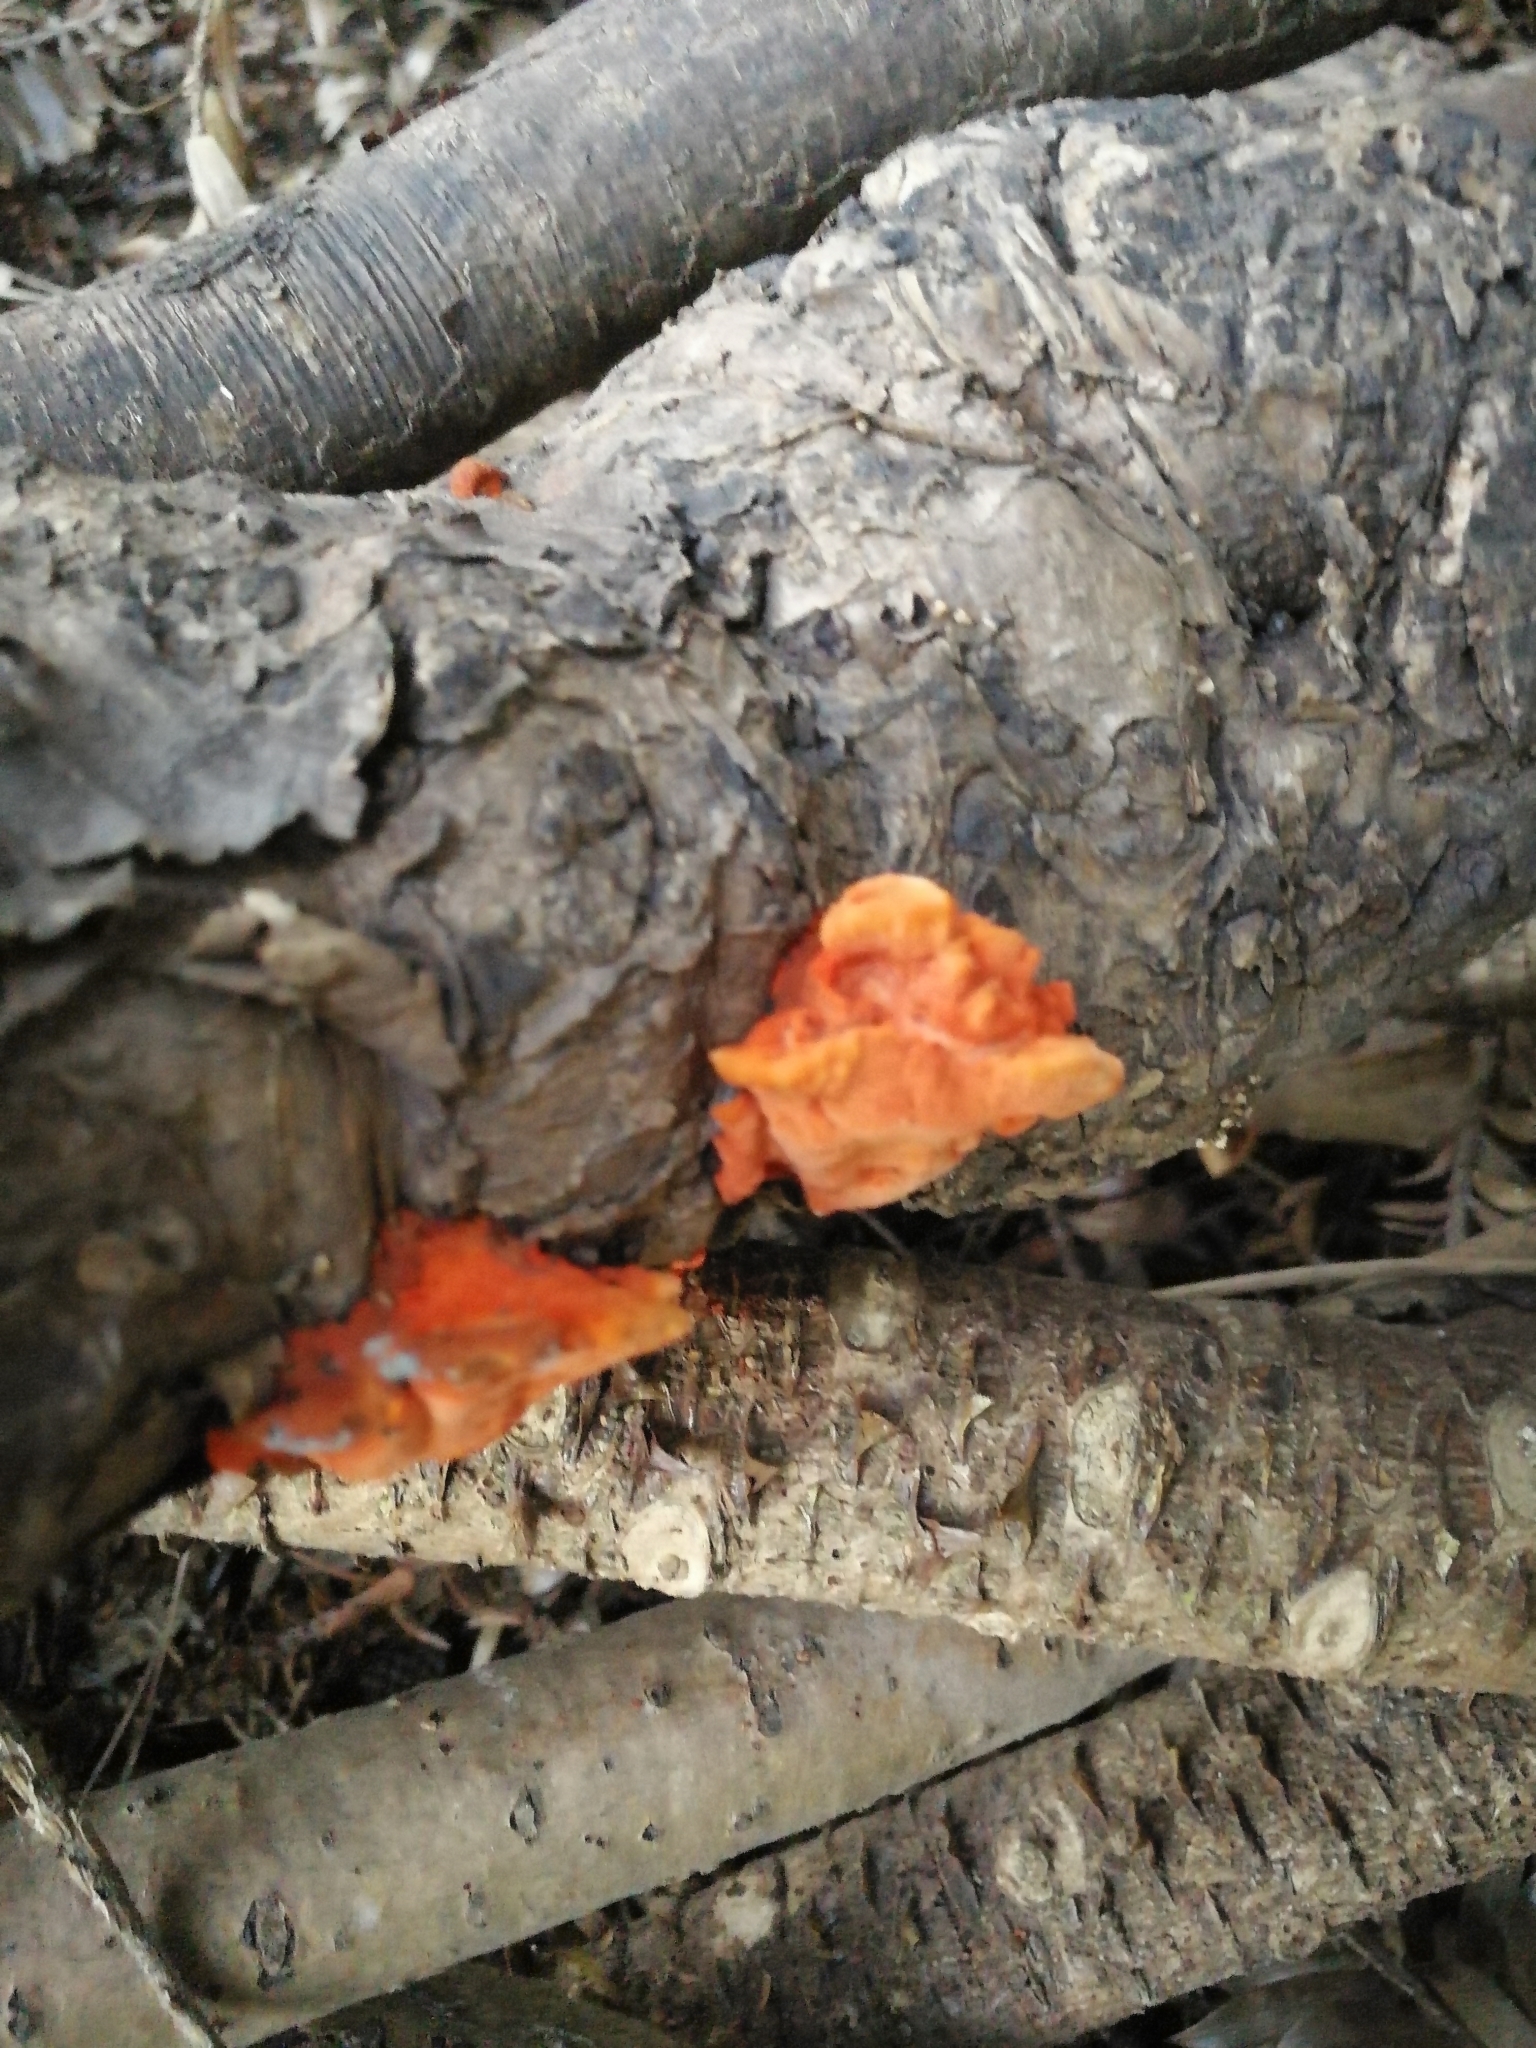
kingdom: Fungi
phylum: Basidiomycota
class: Agaricomycetes
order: Polyporales
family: Polyporaceae
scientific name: Polyporaceae
